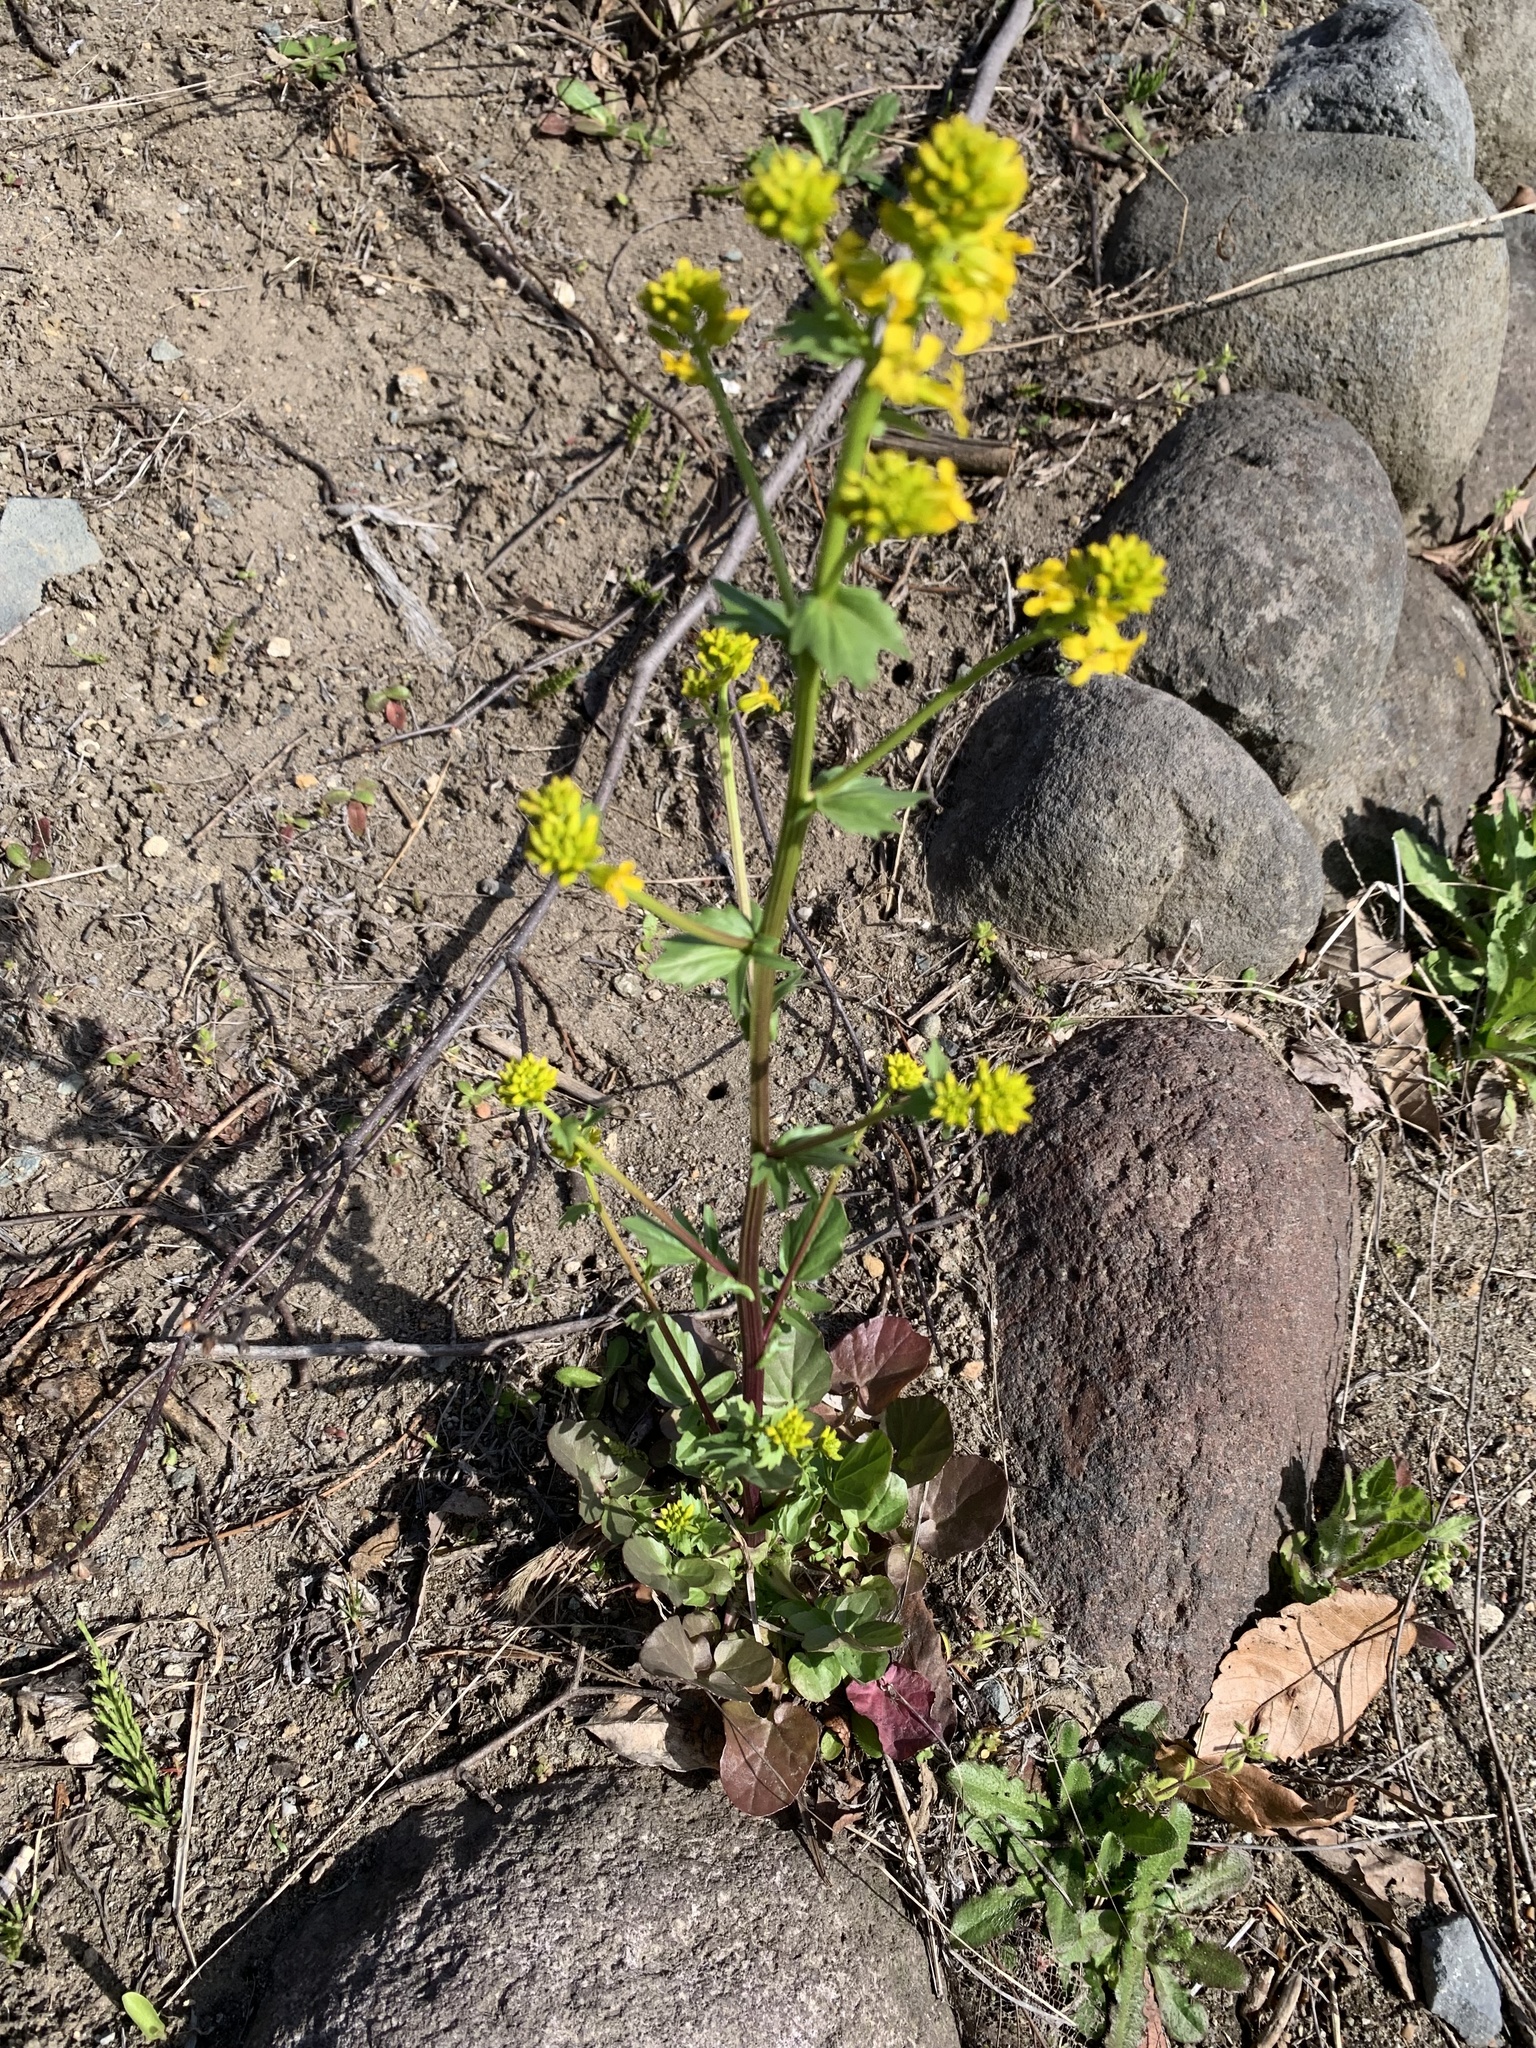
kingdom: Plantae
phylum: Tracheophyta
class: Magnoliopsida
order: Brassicales
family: Brassicaceae
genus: Barbarea
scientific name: Barbarea vulgaris
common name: Cressy-greens
